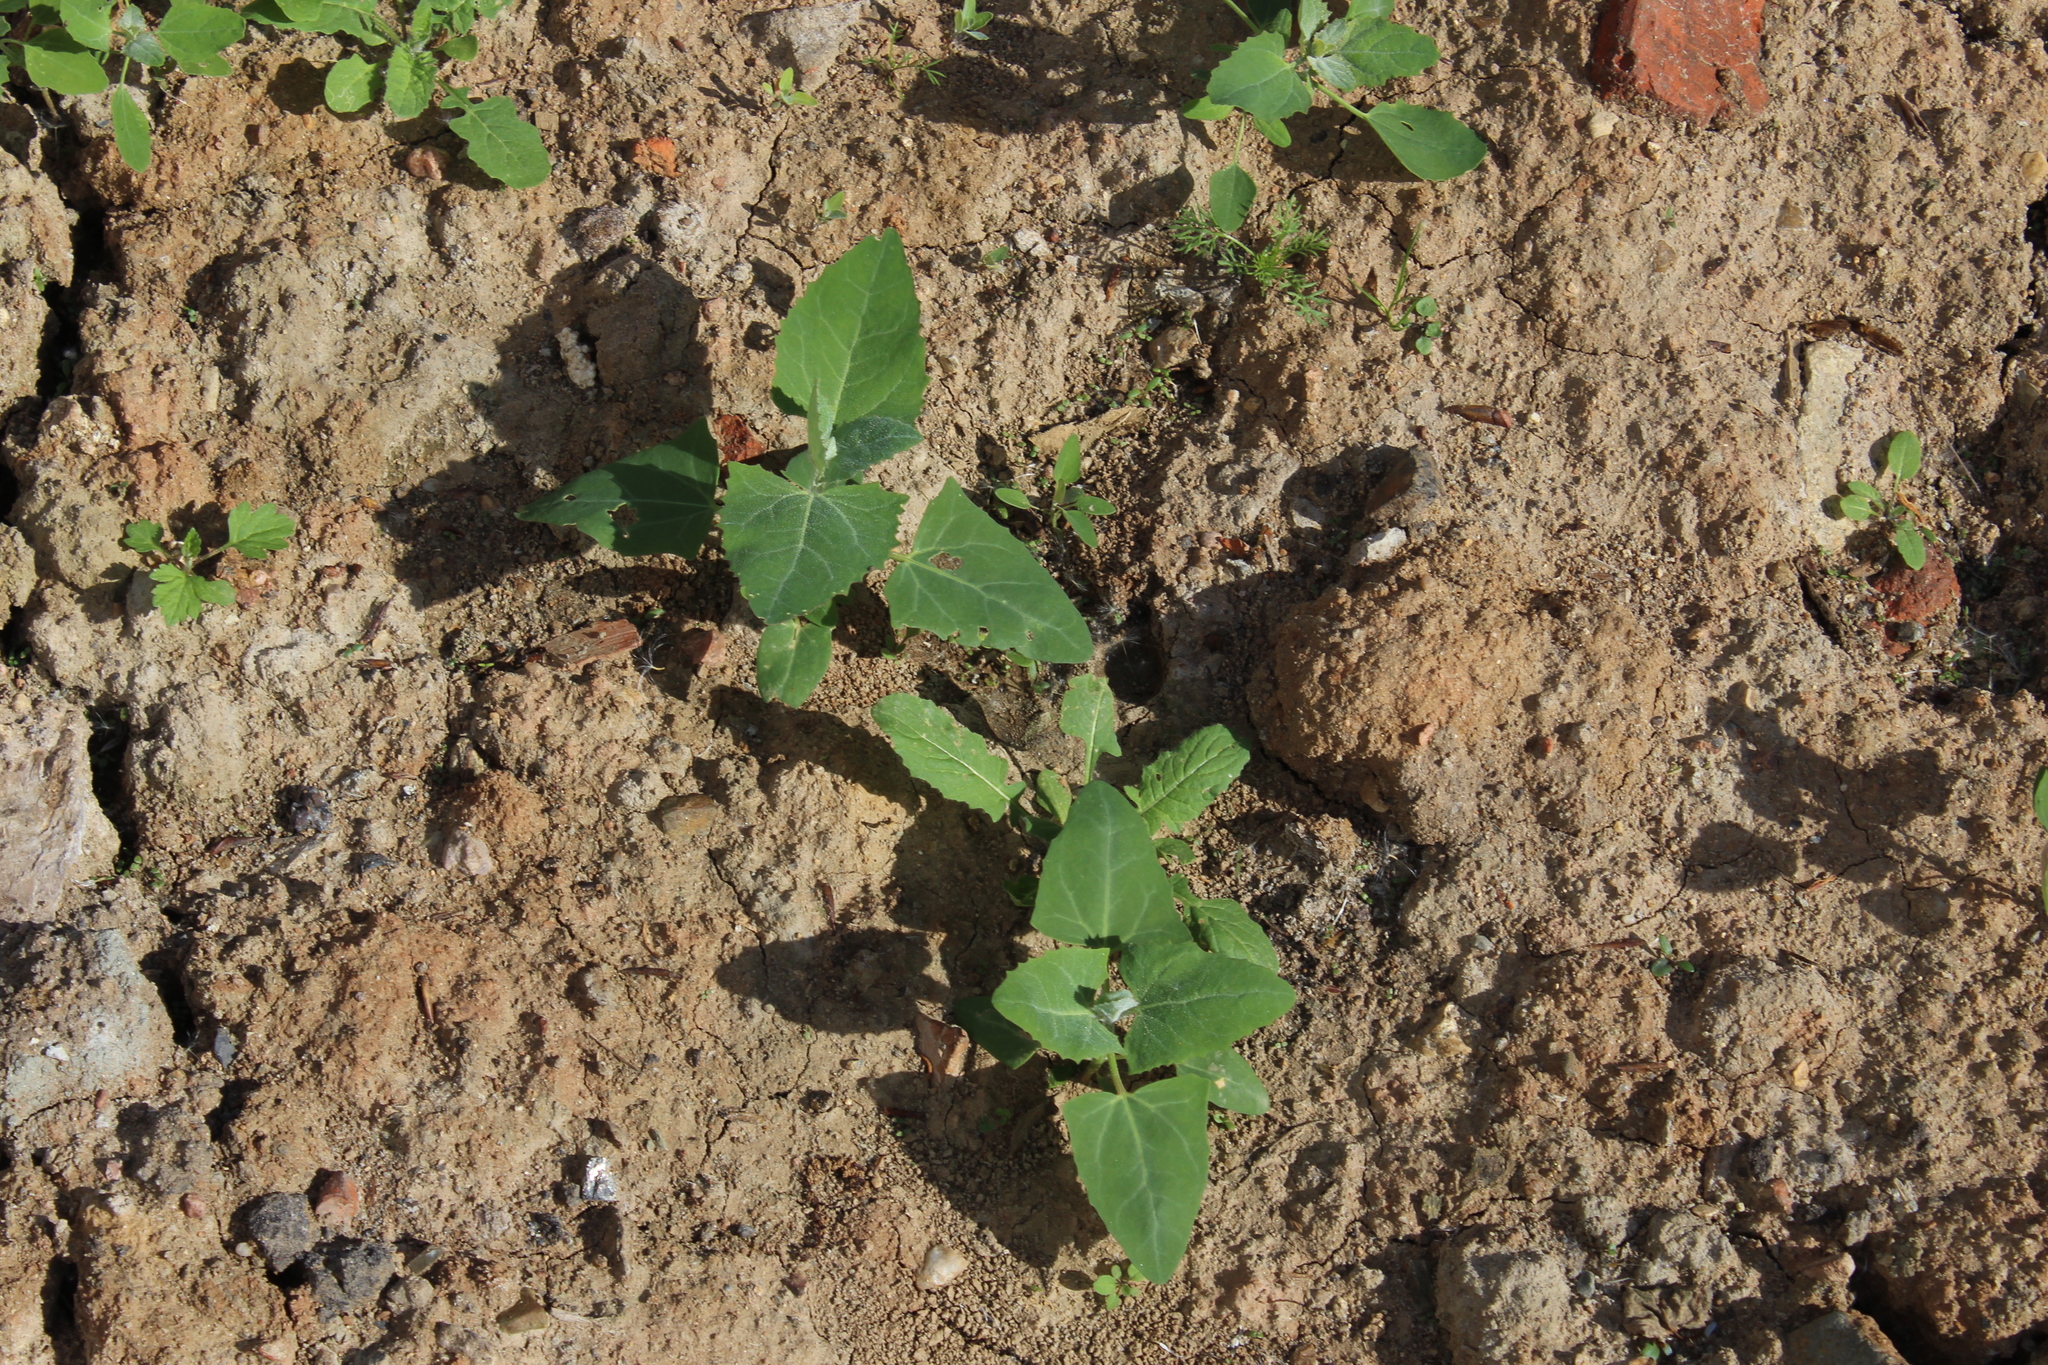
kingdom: Plantae
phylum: Tracheophyta
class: Magnoliopsida
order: Caryophyllales
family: Amaranthaceae
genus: Atriplex
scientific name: Atriplex prostrata
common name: Spear-leaved orache
